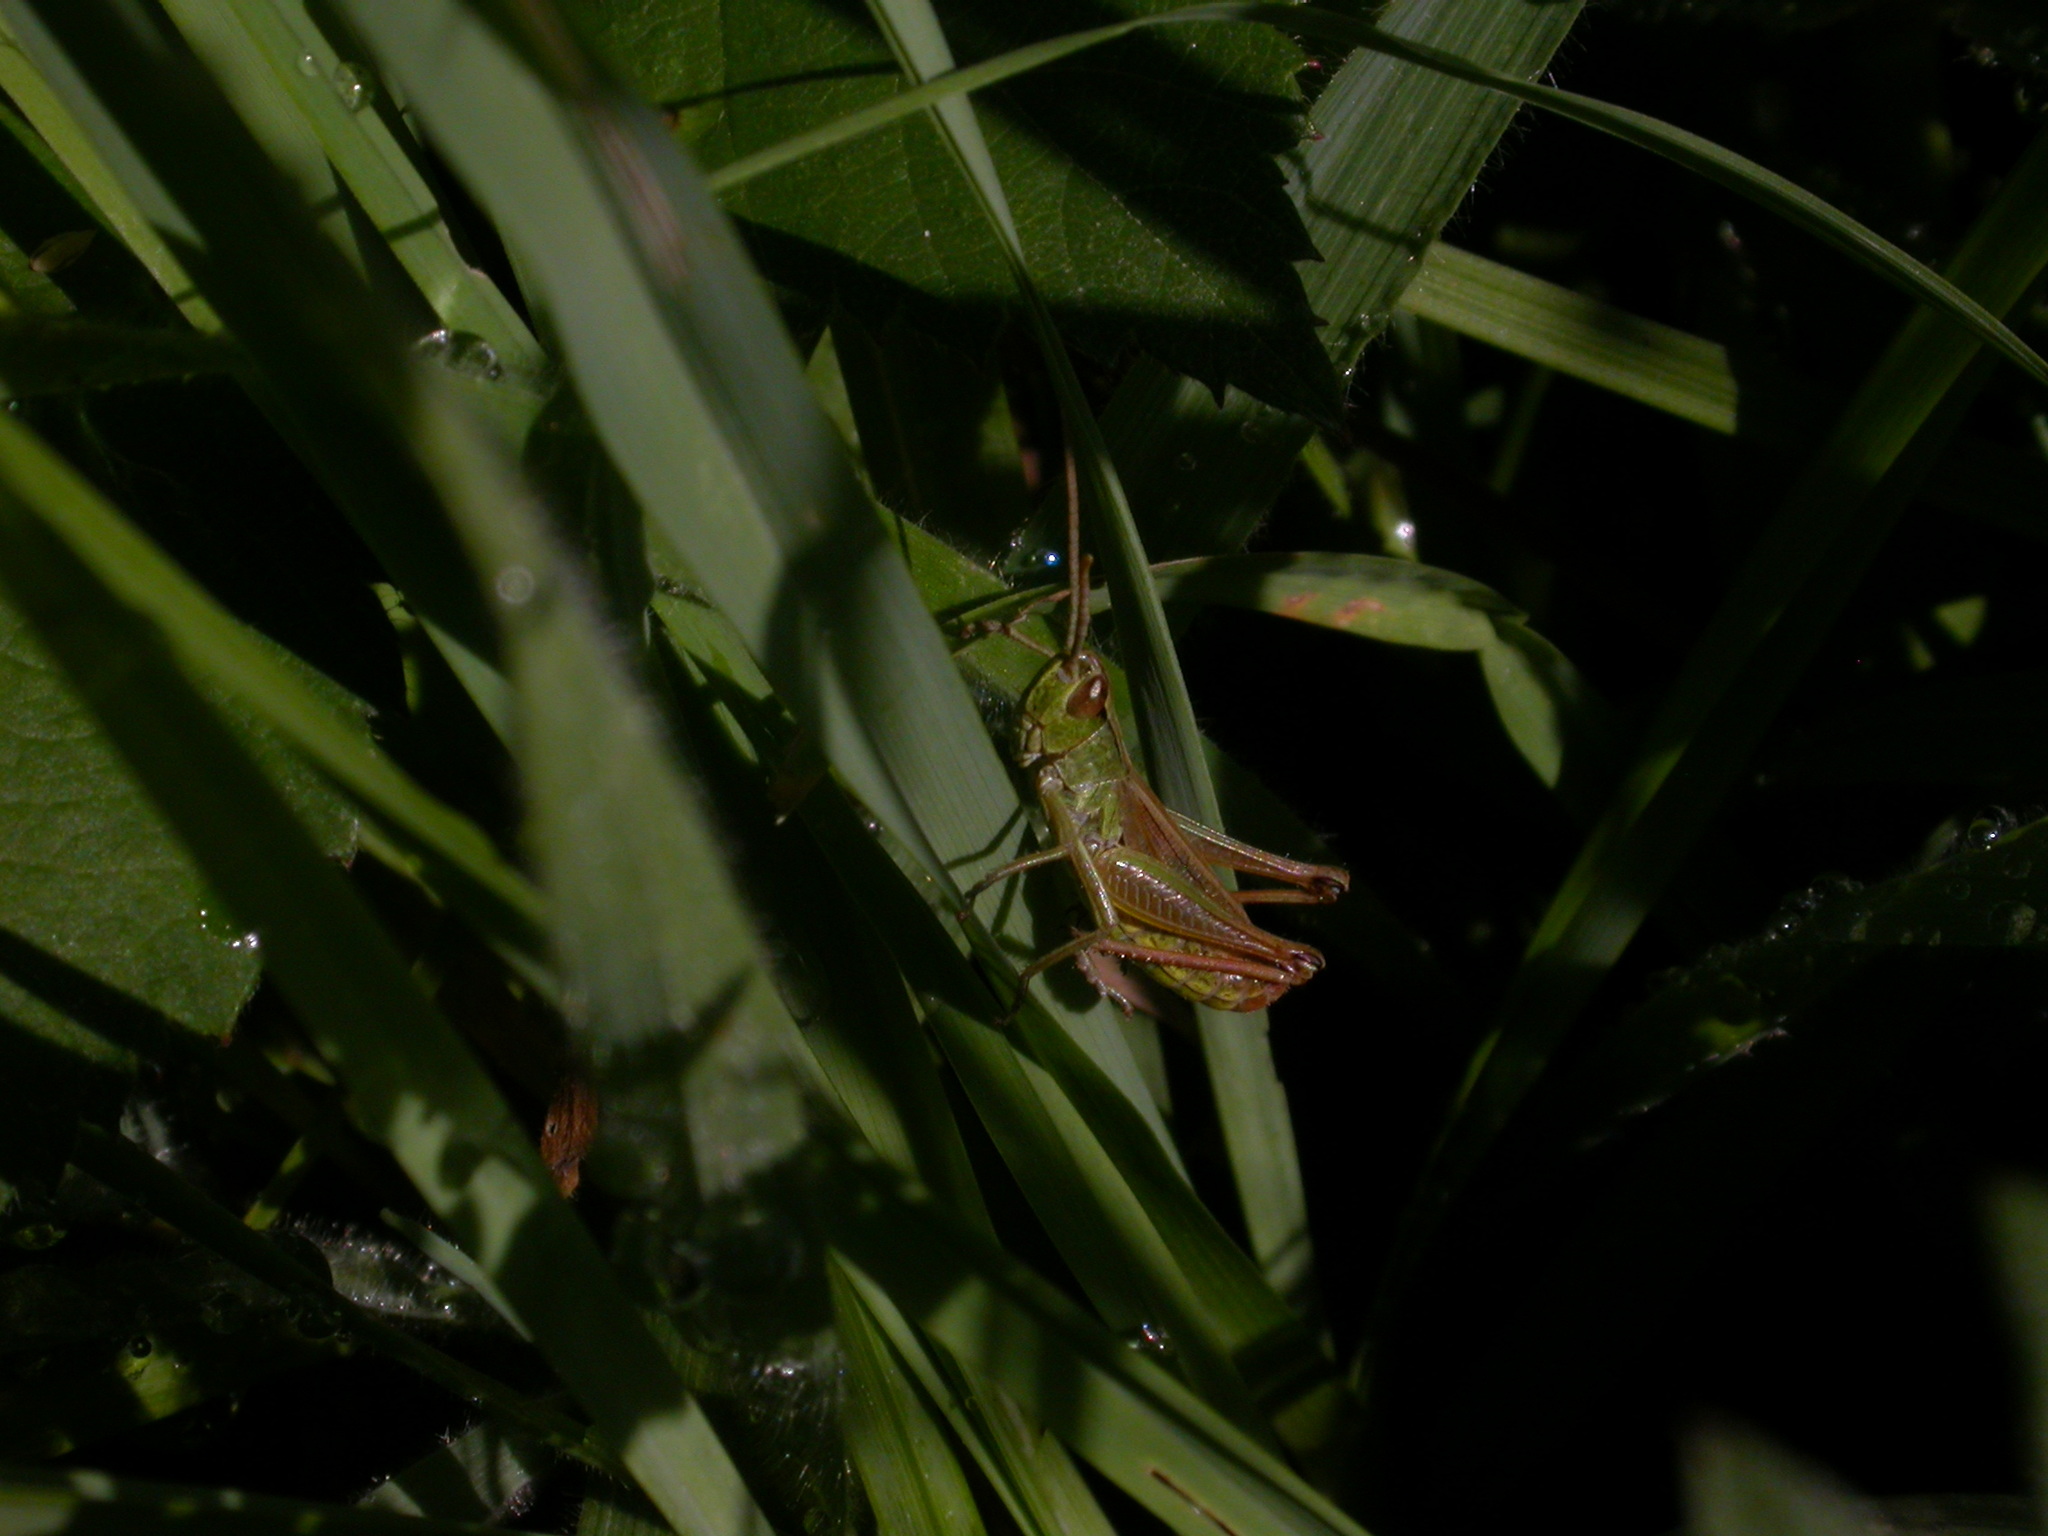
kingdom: Animalia
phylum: Arthropoda
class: Insecta
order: Orthoptera
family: Acrididae
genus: Pseudochorthippus
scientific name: Pseudochorthippus parallelus
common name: Meadow grasshopper
